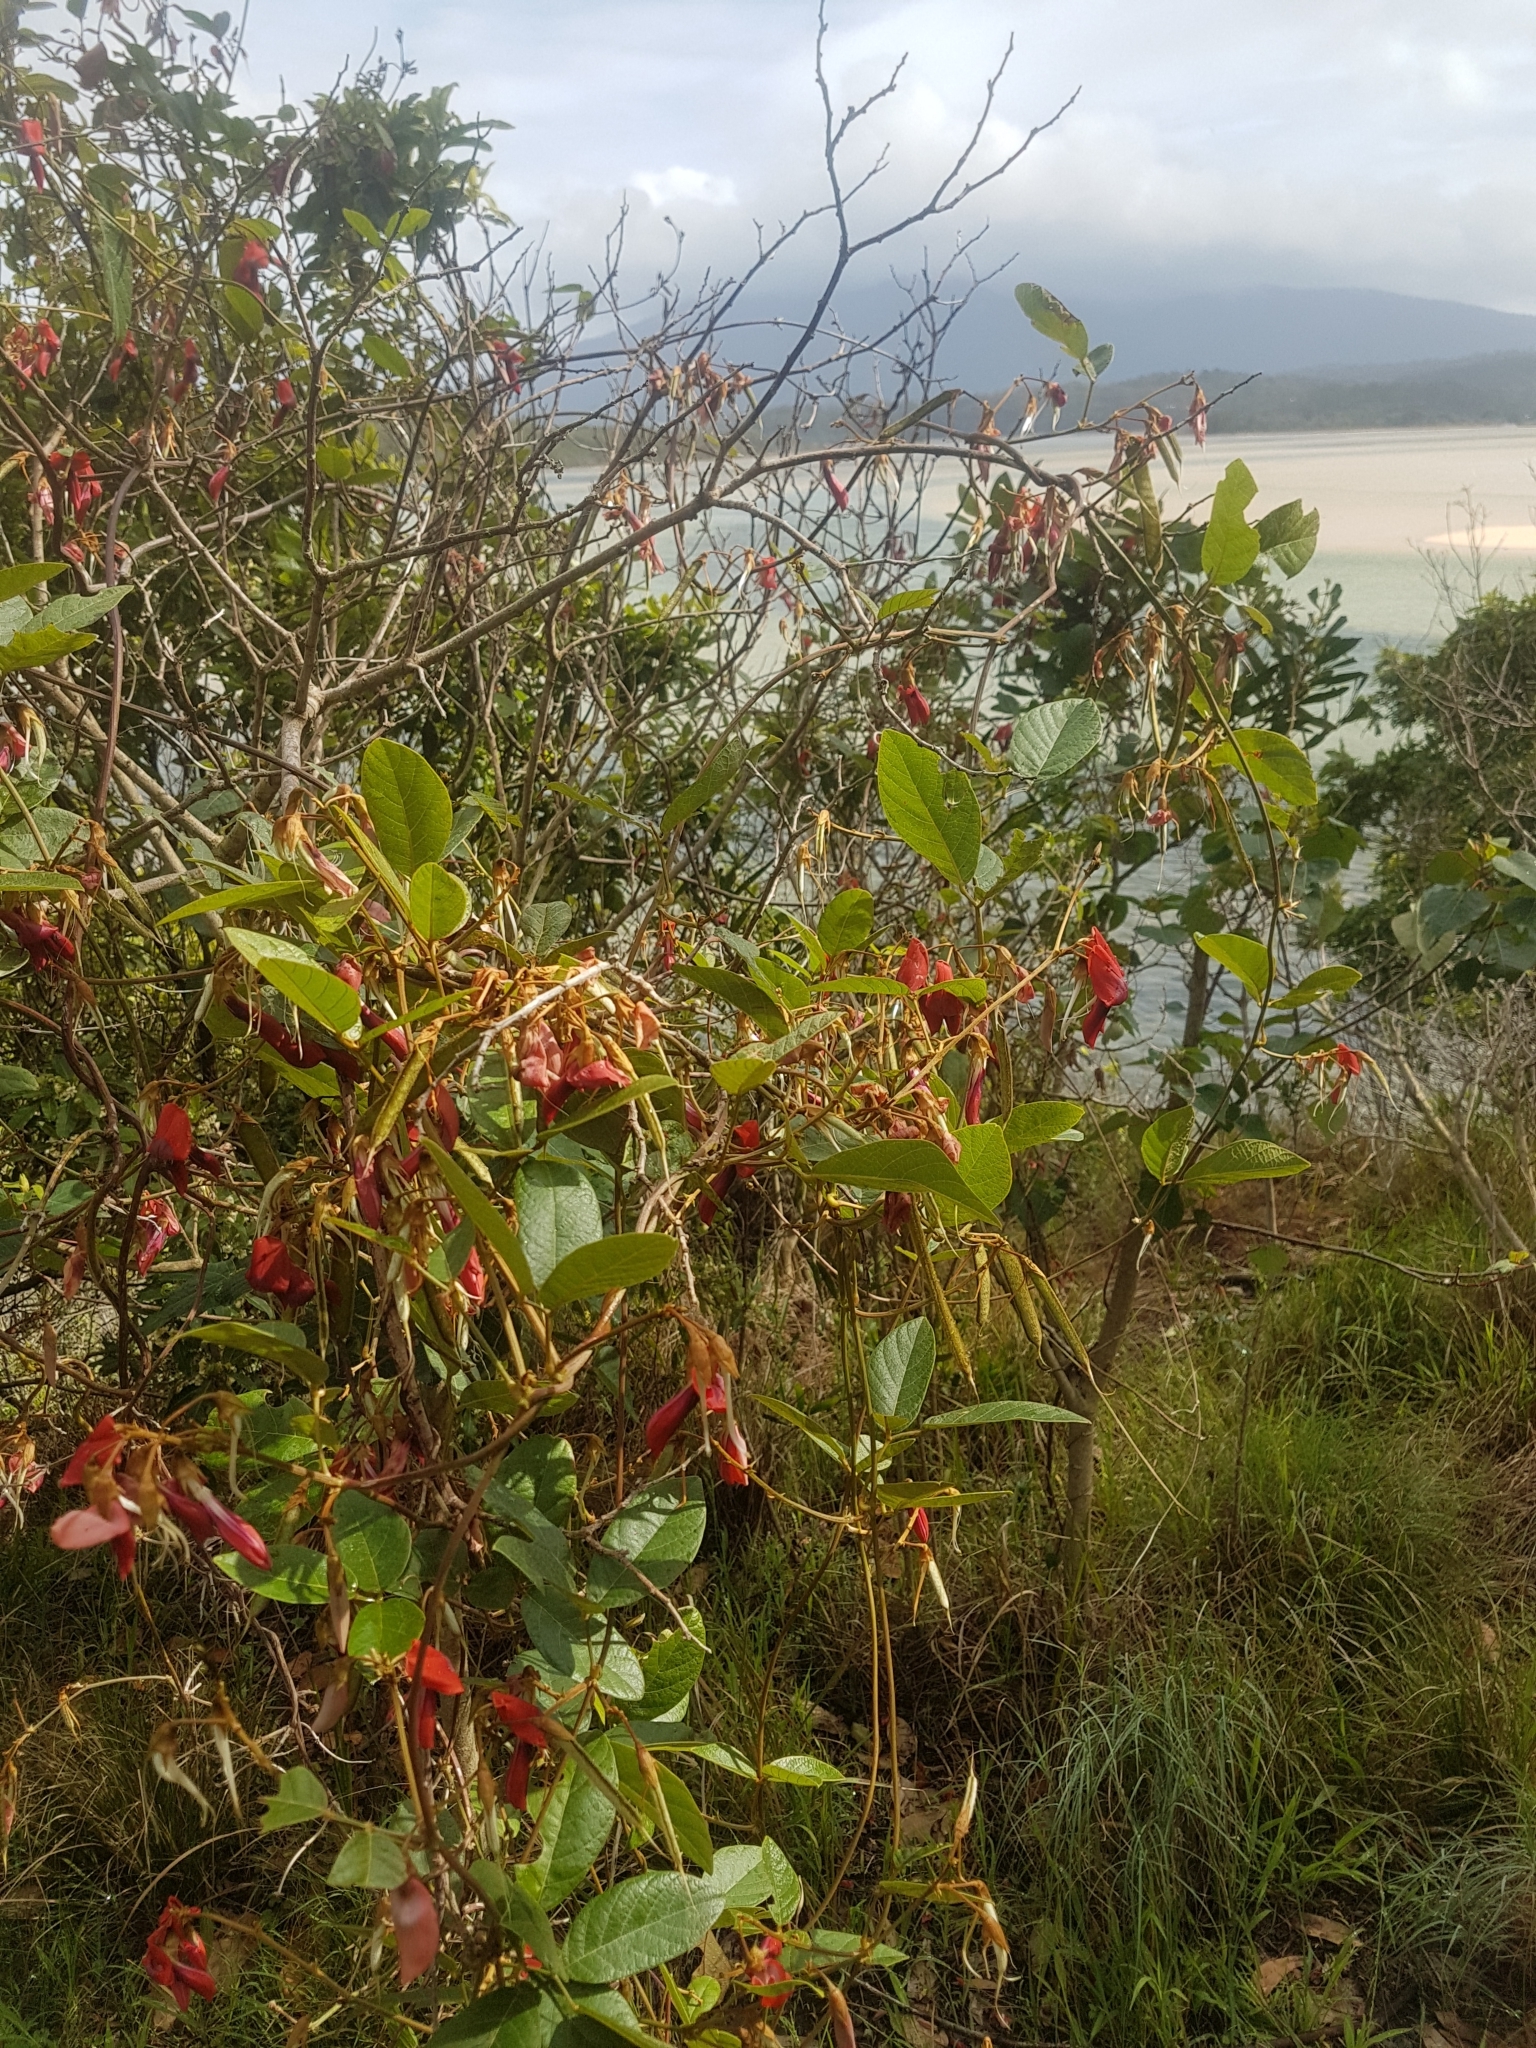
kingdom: Plantae
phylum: Tracheophyta
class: Magnoliopsida
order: Fabales
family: Fabaceae
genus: Kennedia
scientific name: Kennedia rubicunda
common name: Red kennedy-pea
